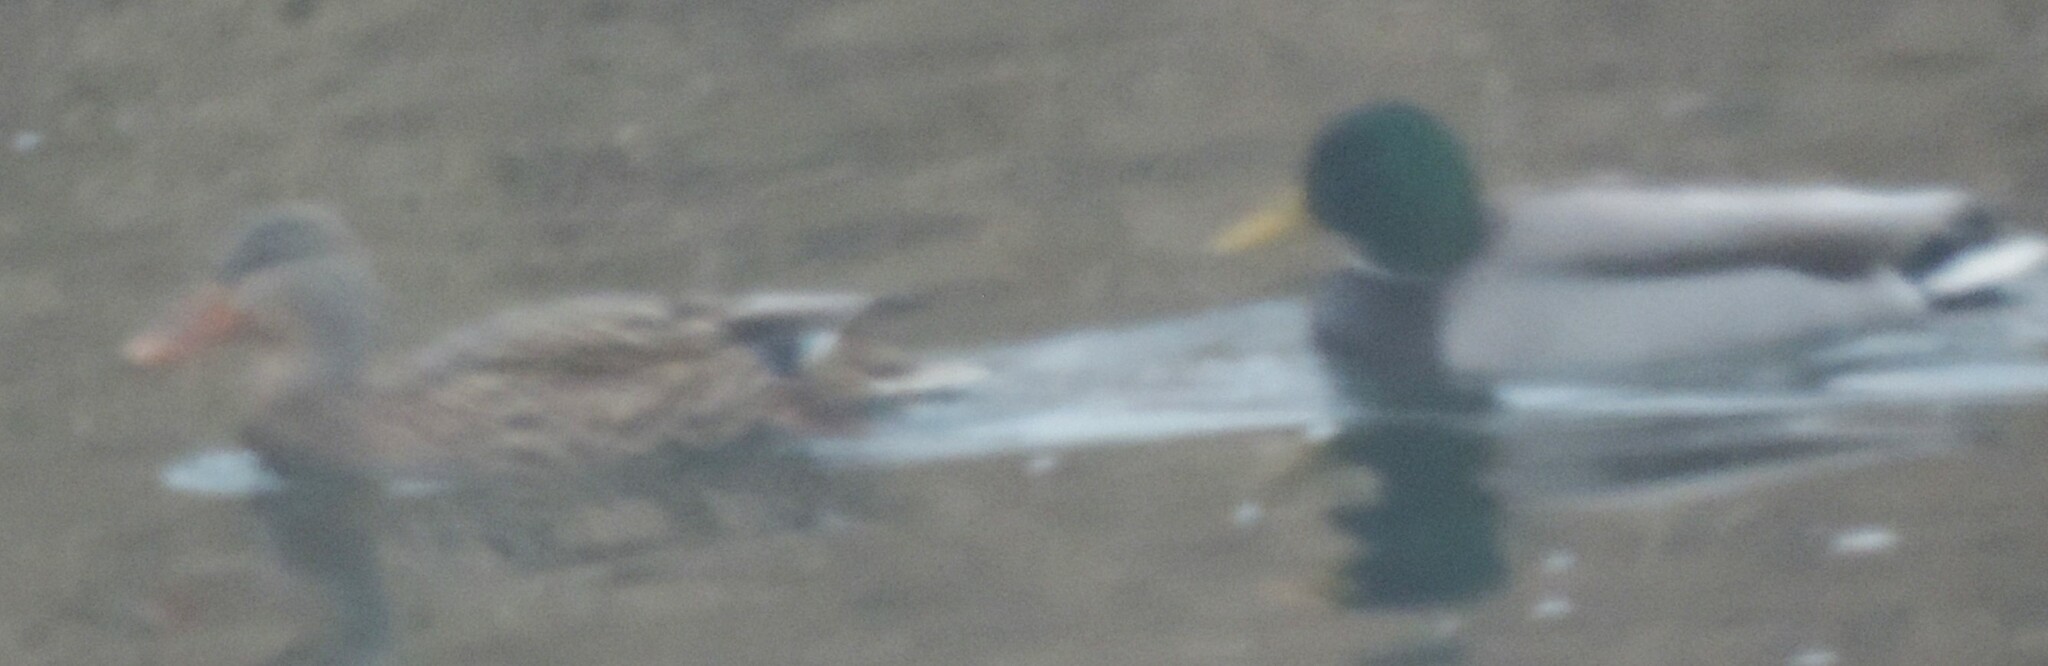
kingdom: Animalia
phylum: Chordata
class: Aves
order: Anseriformes
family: Anatidae
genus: Anas
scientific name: Anas platyrhynchos
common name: Mallard
